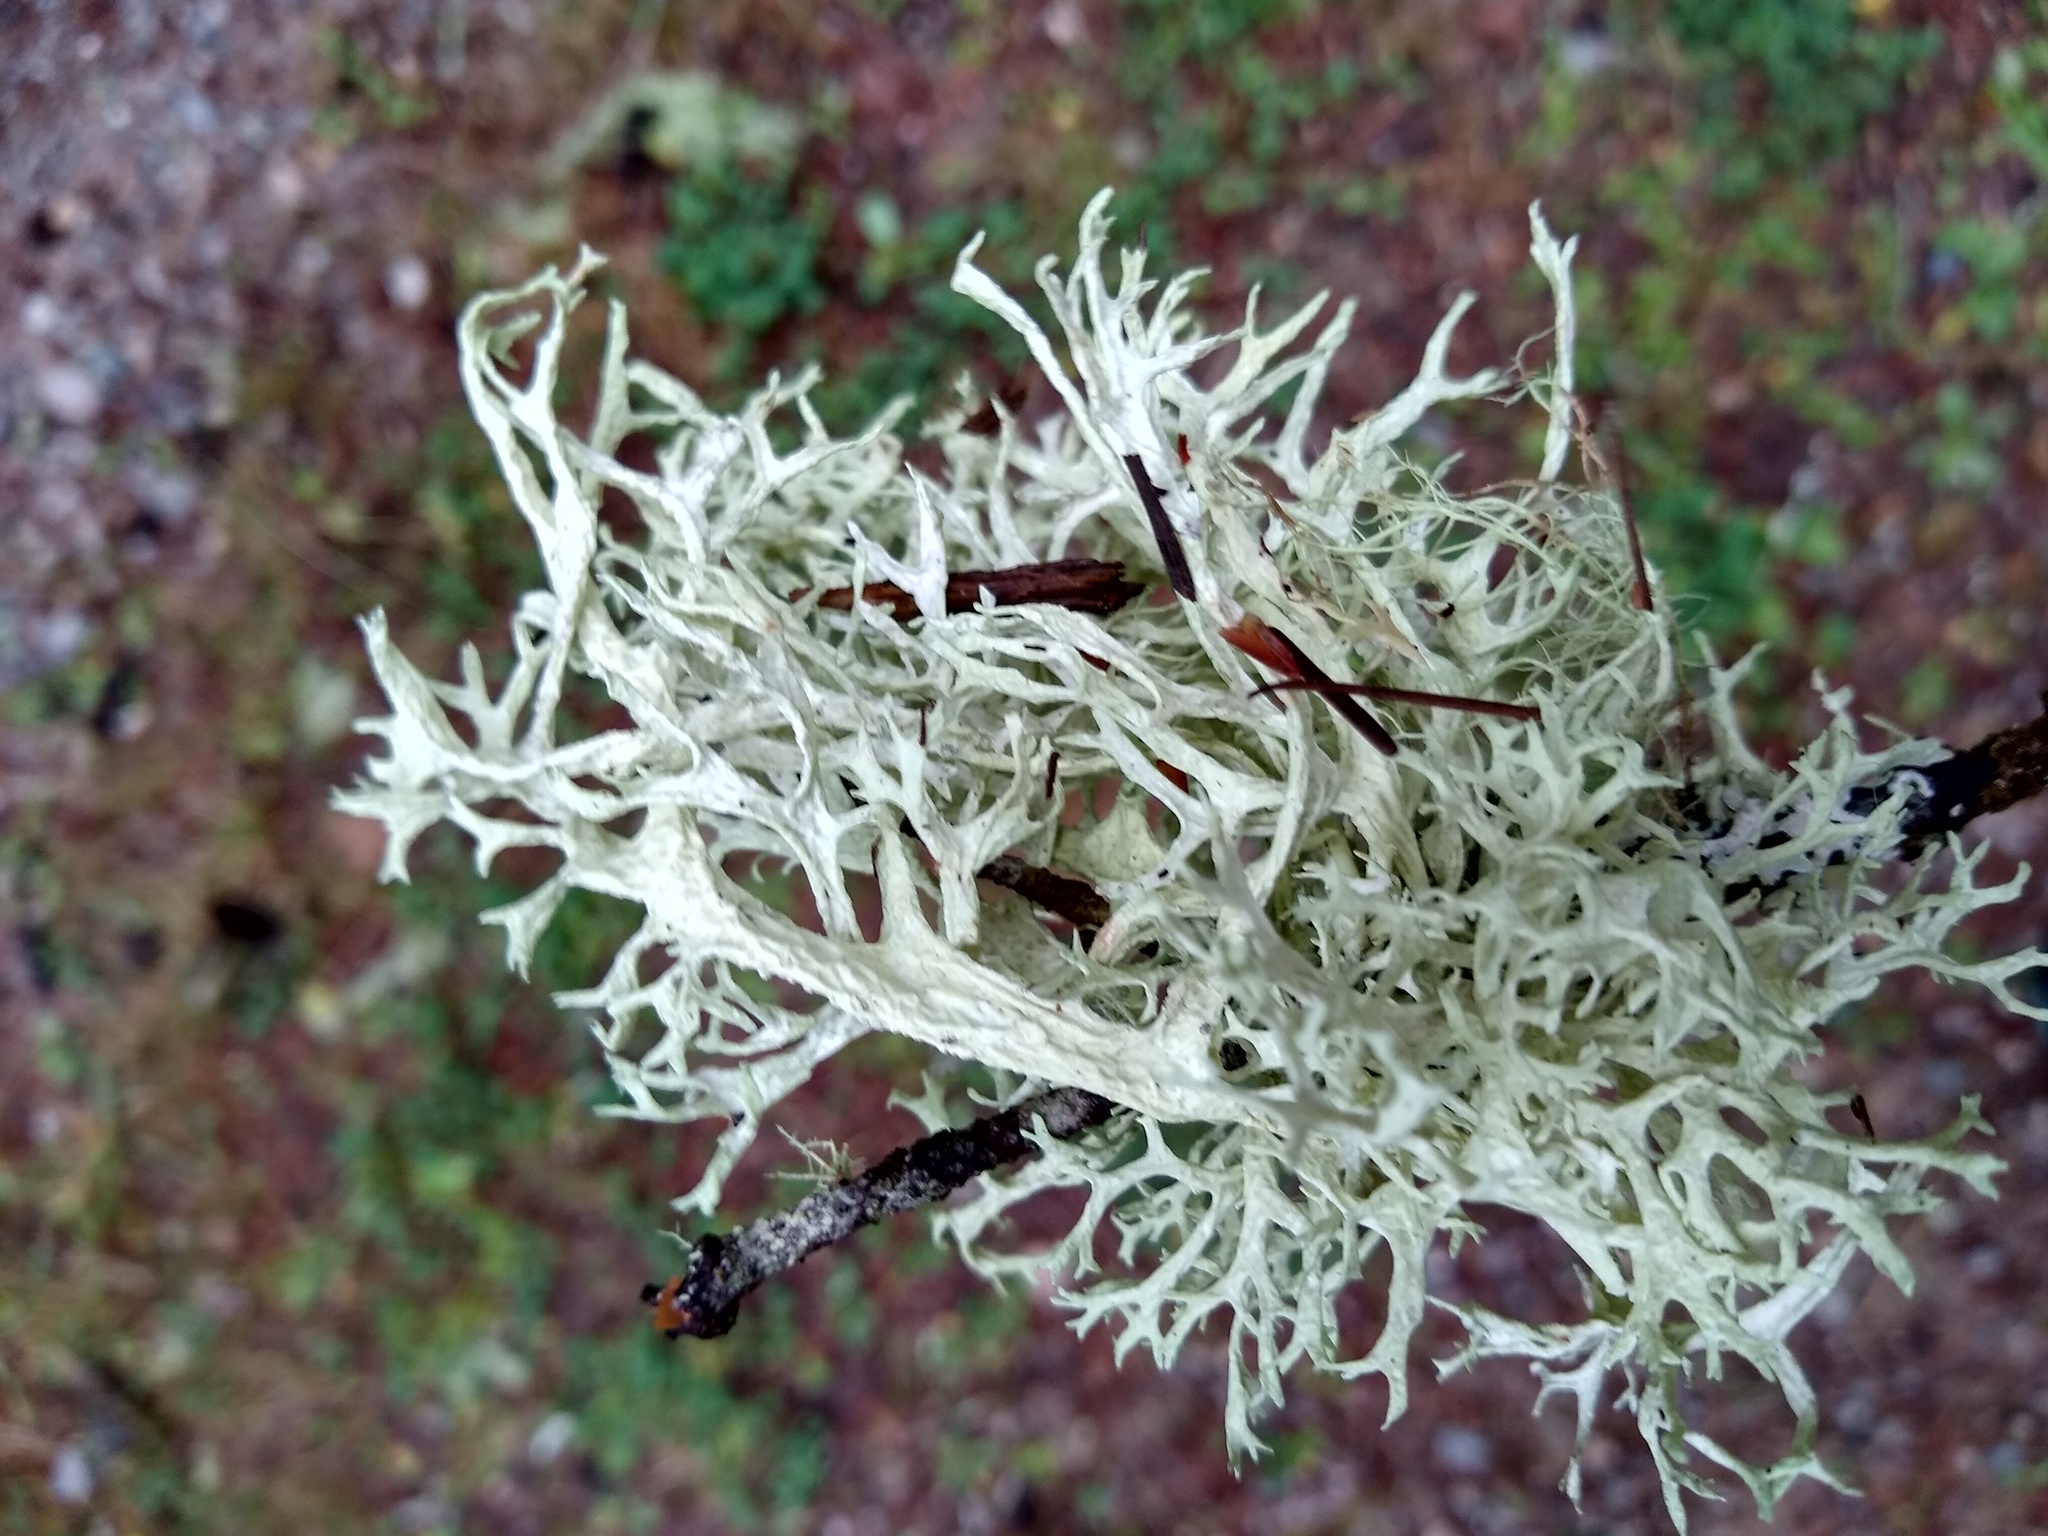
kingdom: Fungi
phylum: Ascomycota
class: Lecanoromycetes
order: Lecanorales
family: Parmeliaceae
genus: Evernia
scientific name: Evernia prunastri
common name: Oak moss
